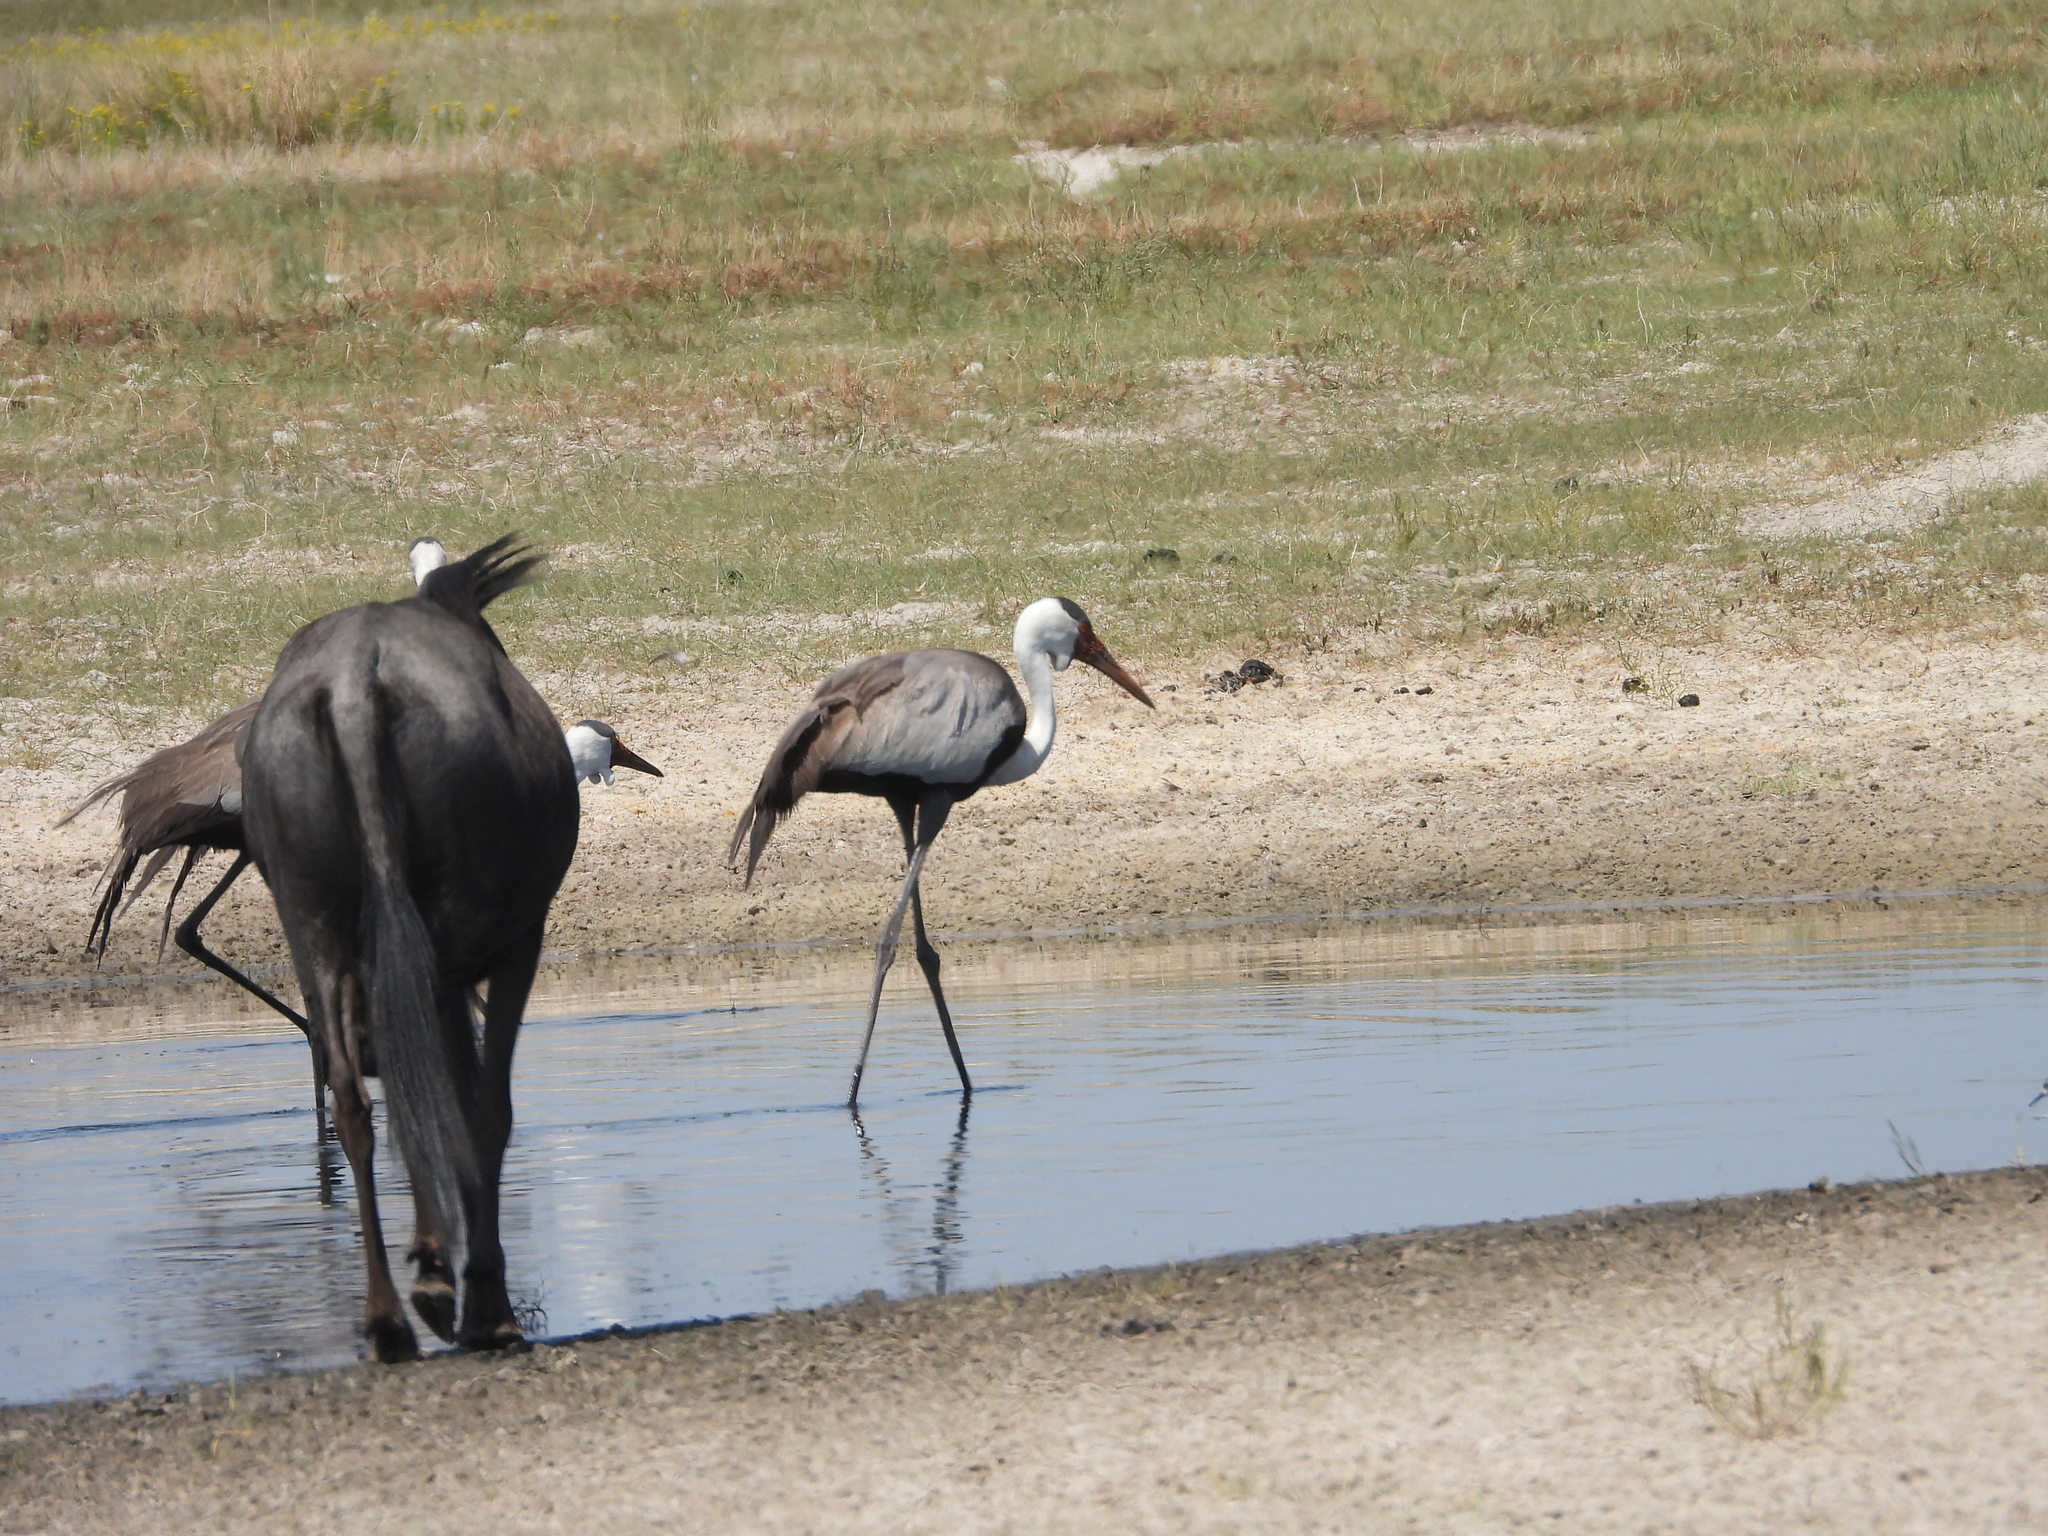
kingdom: Animalia
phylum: Chordata
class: Aves
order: Gruiformes
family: Gruidae
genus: Bugeranus
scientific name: Bugeranus carunculatus
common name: Wattled crane
